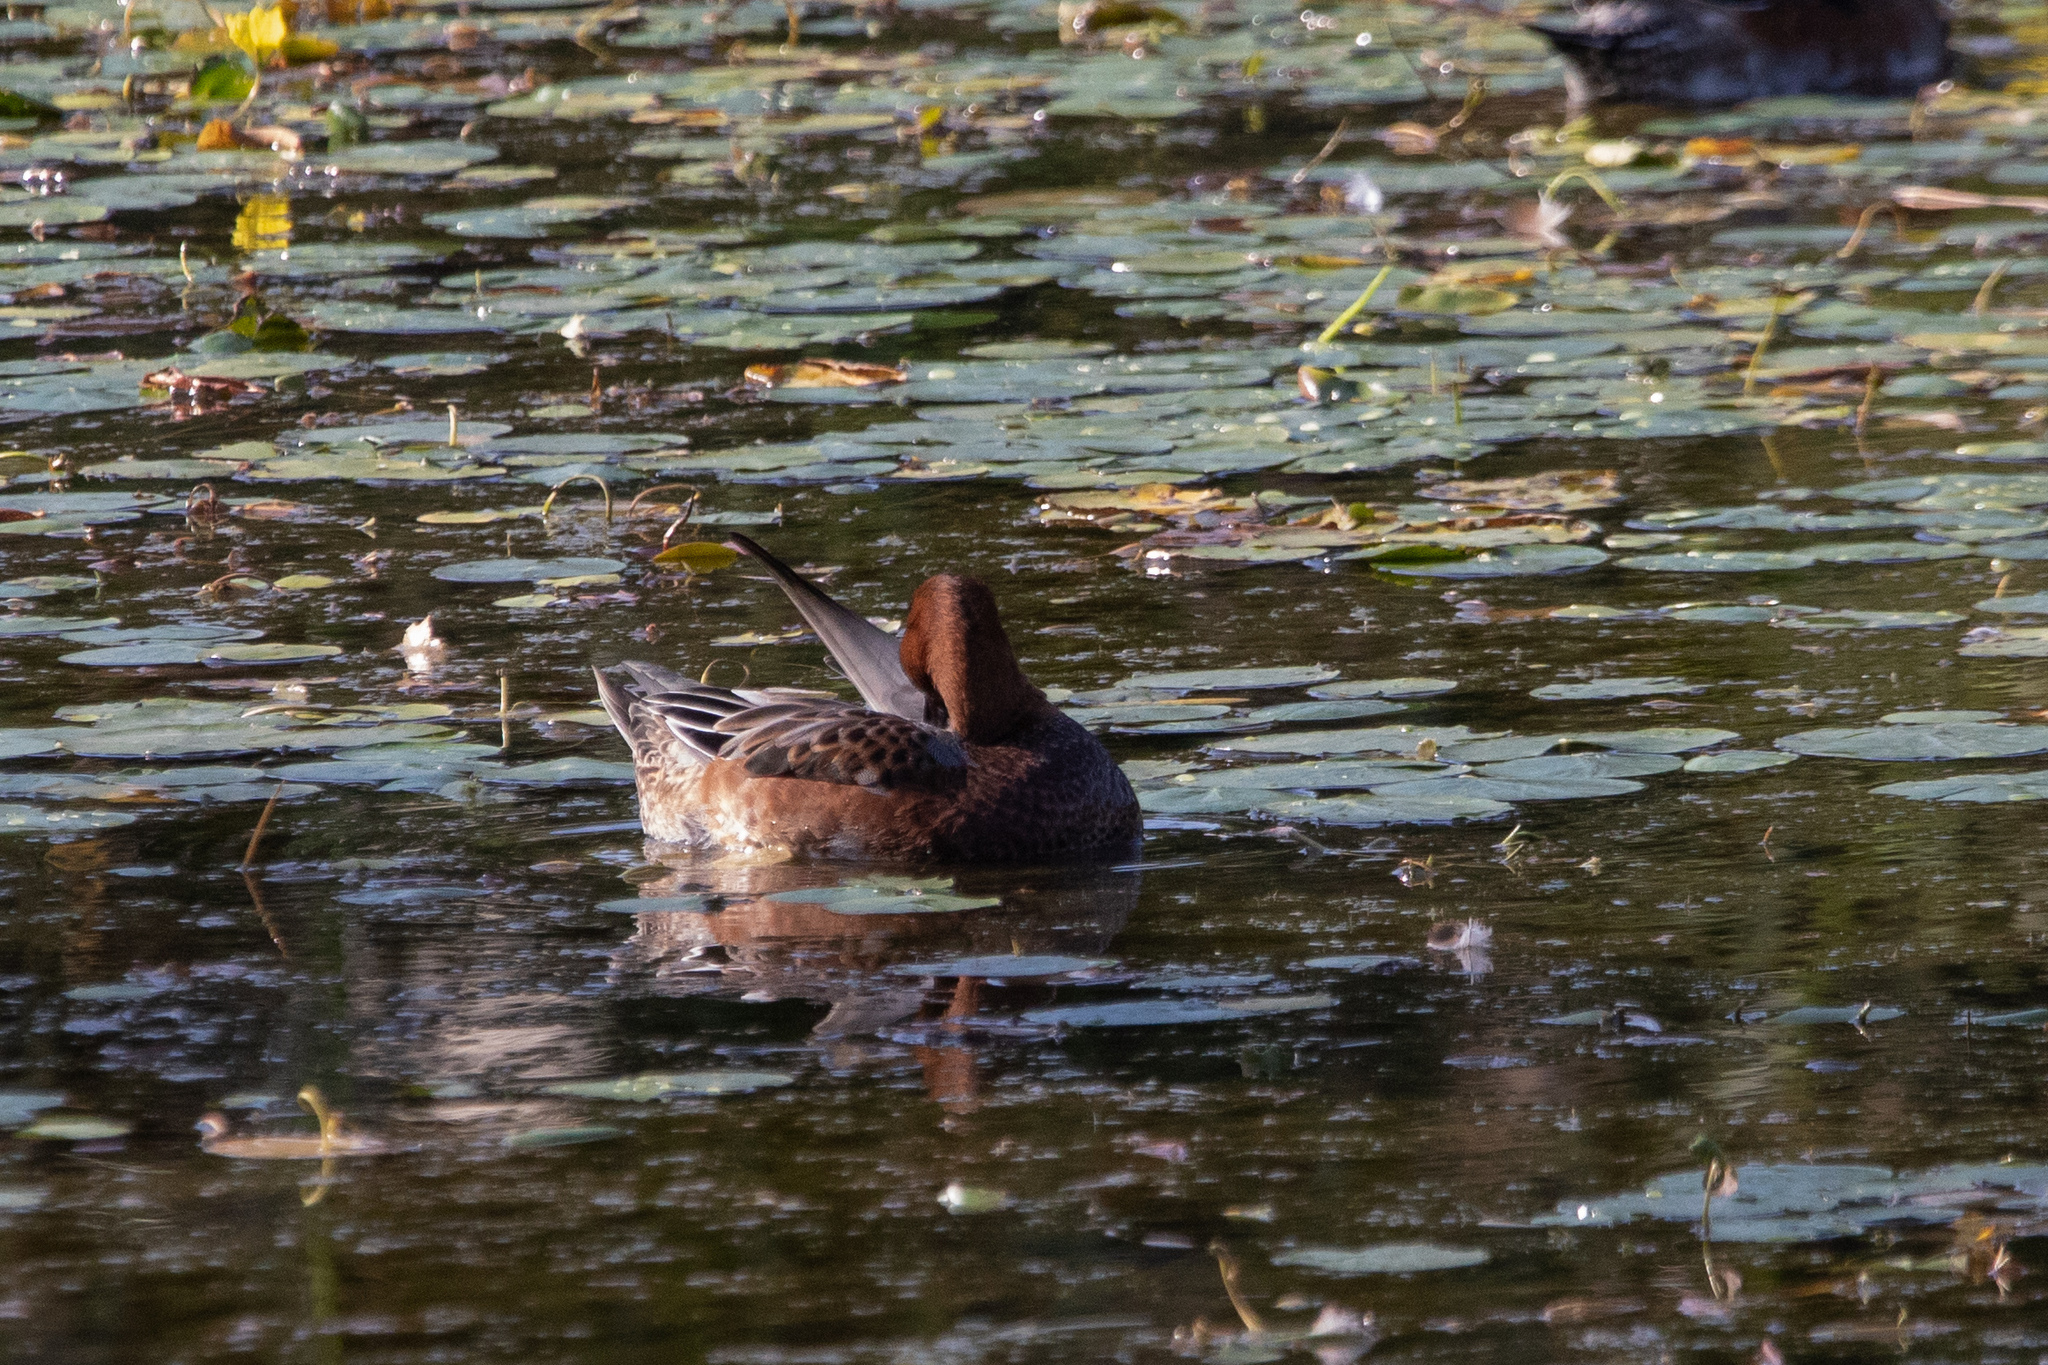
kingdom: Animalia
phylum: Chordata
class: Aves
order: Anseriformes
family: Anatidae
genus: Mareca
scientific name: Mareca penelope
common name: Eurasian wigeon
